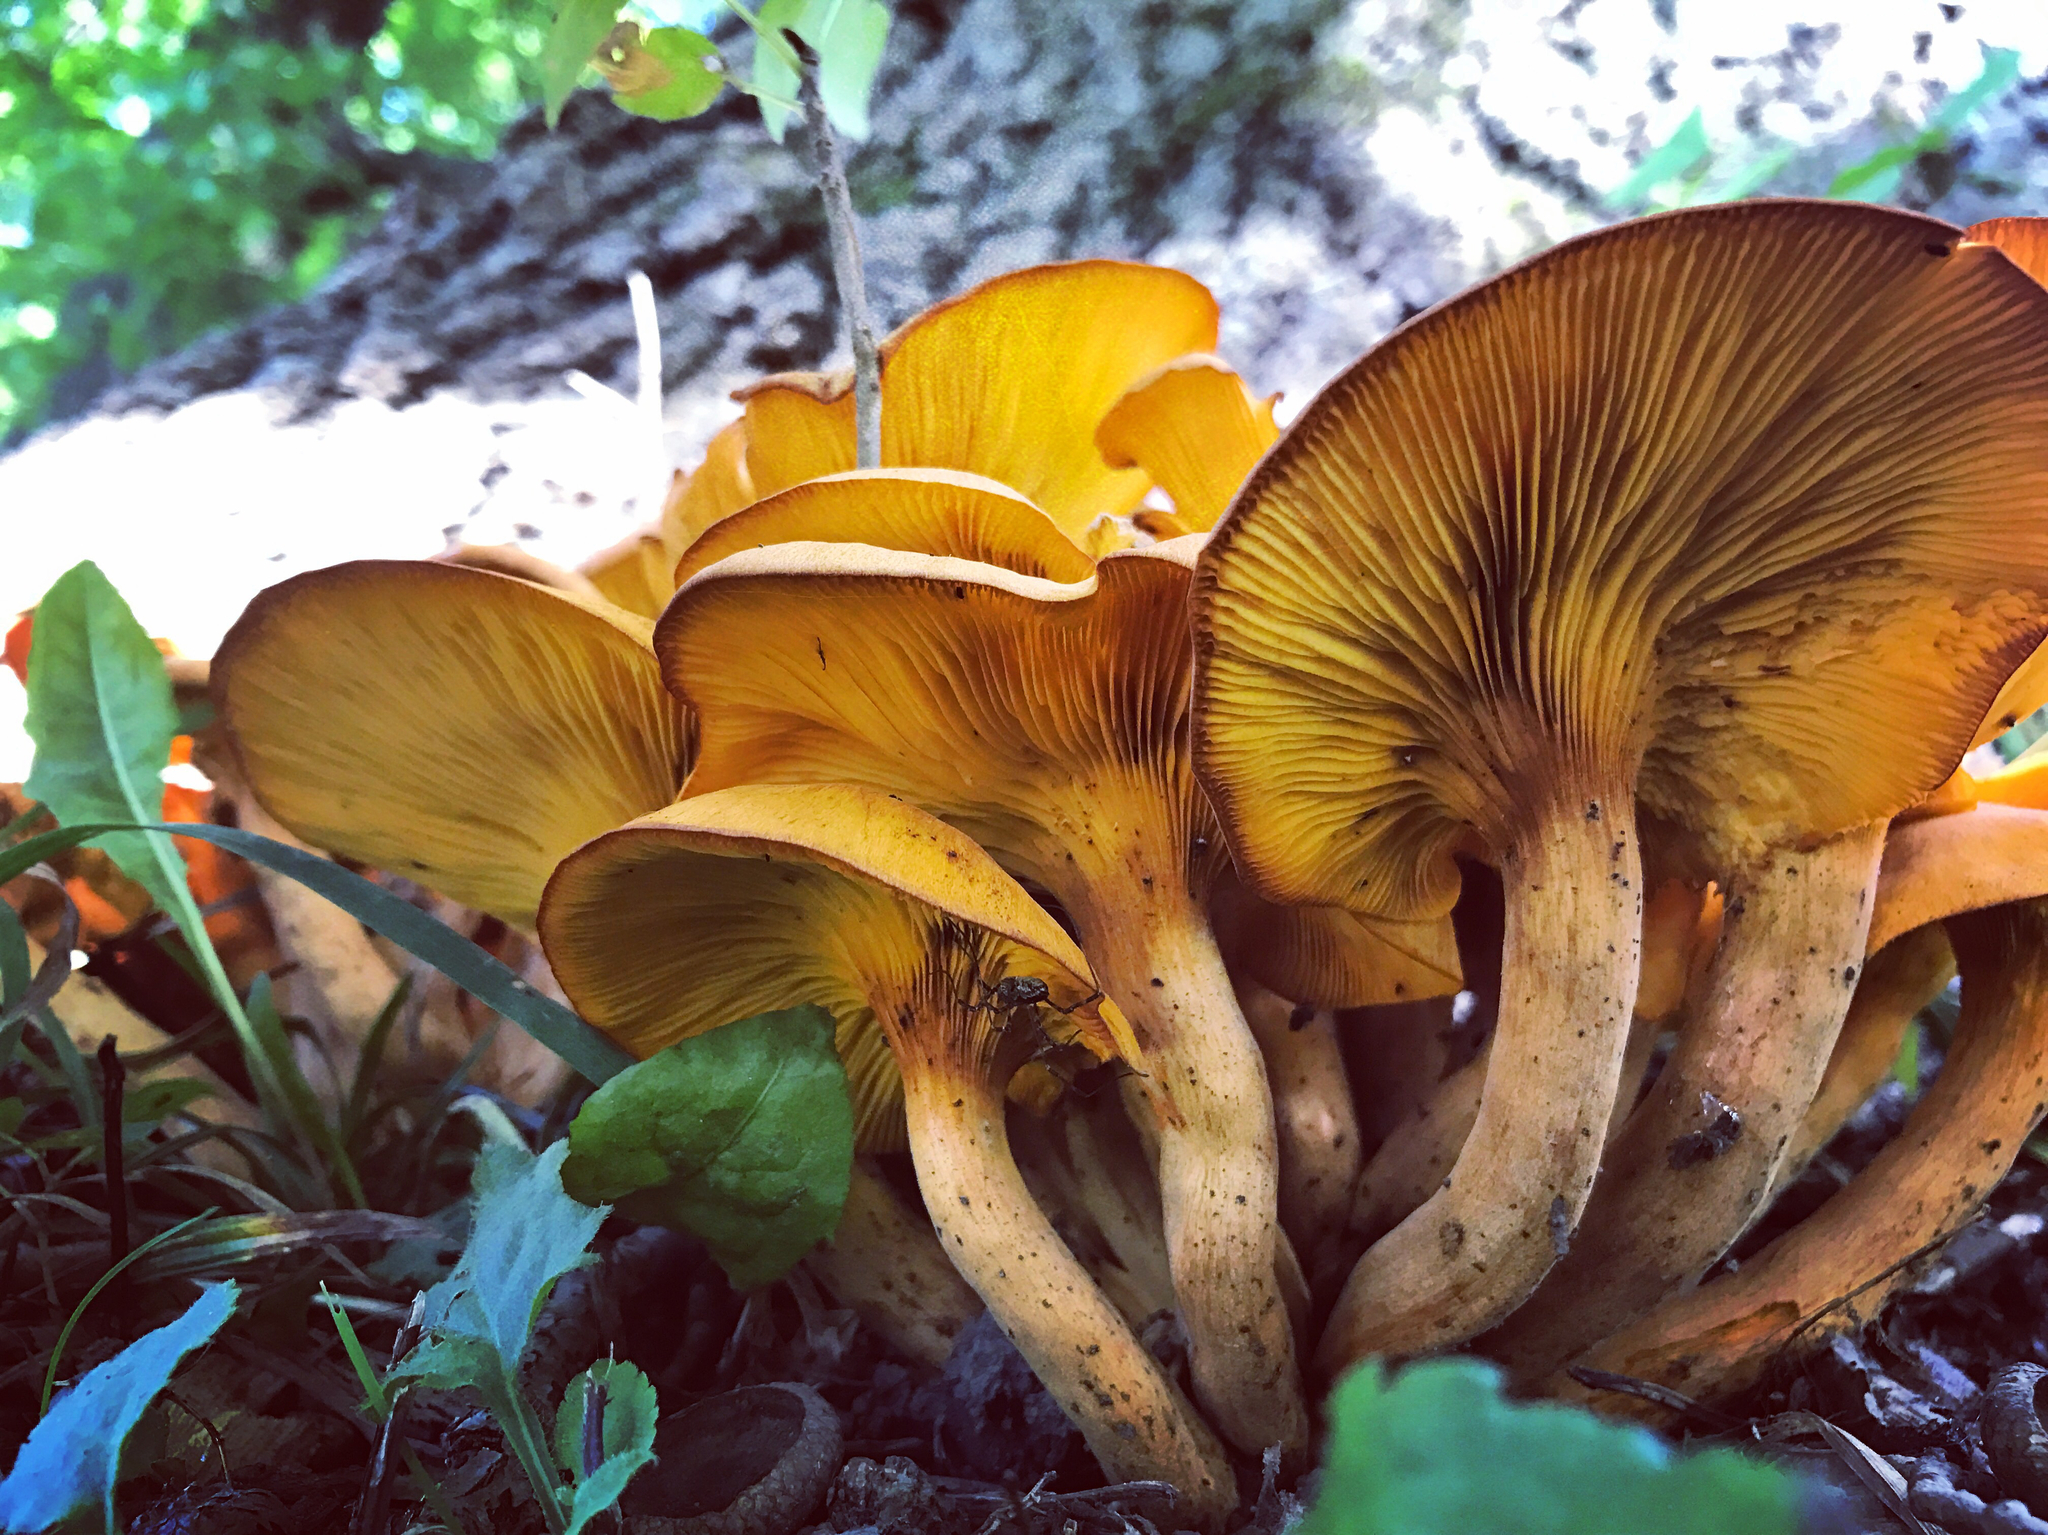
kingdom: Fungi
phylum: Basidiomycota
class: Agaricomycetes
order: Agaricales
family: Omphalotaceae
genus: Omphalotus
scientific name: Omphalotus illudens
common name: Jack o lantern
